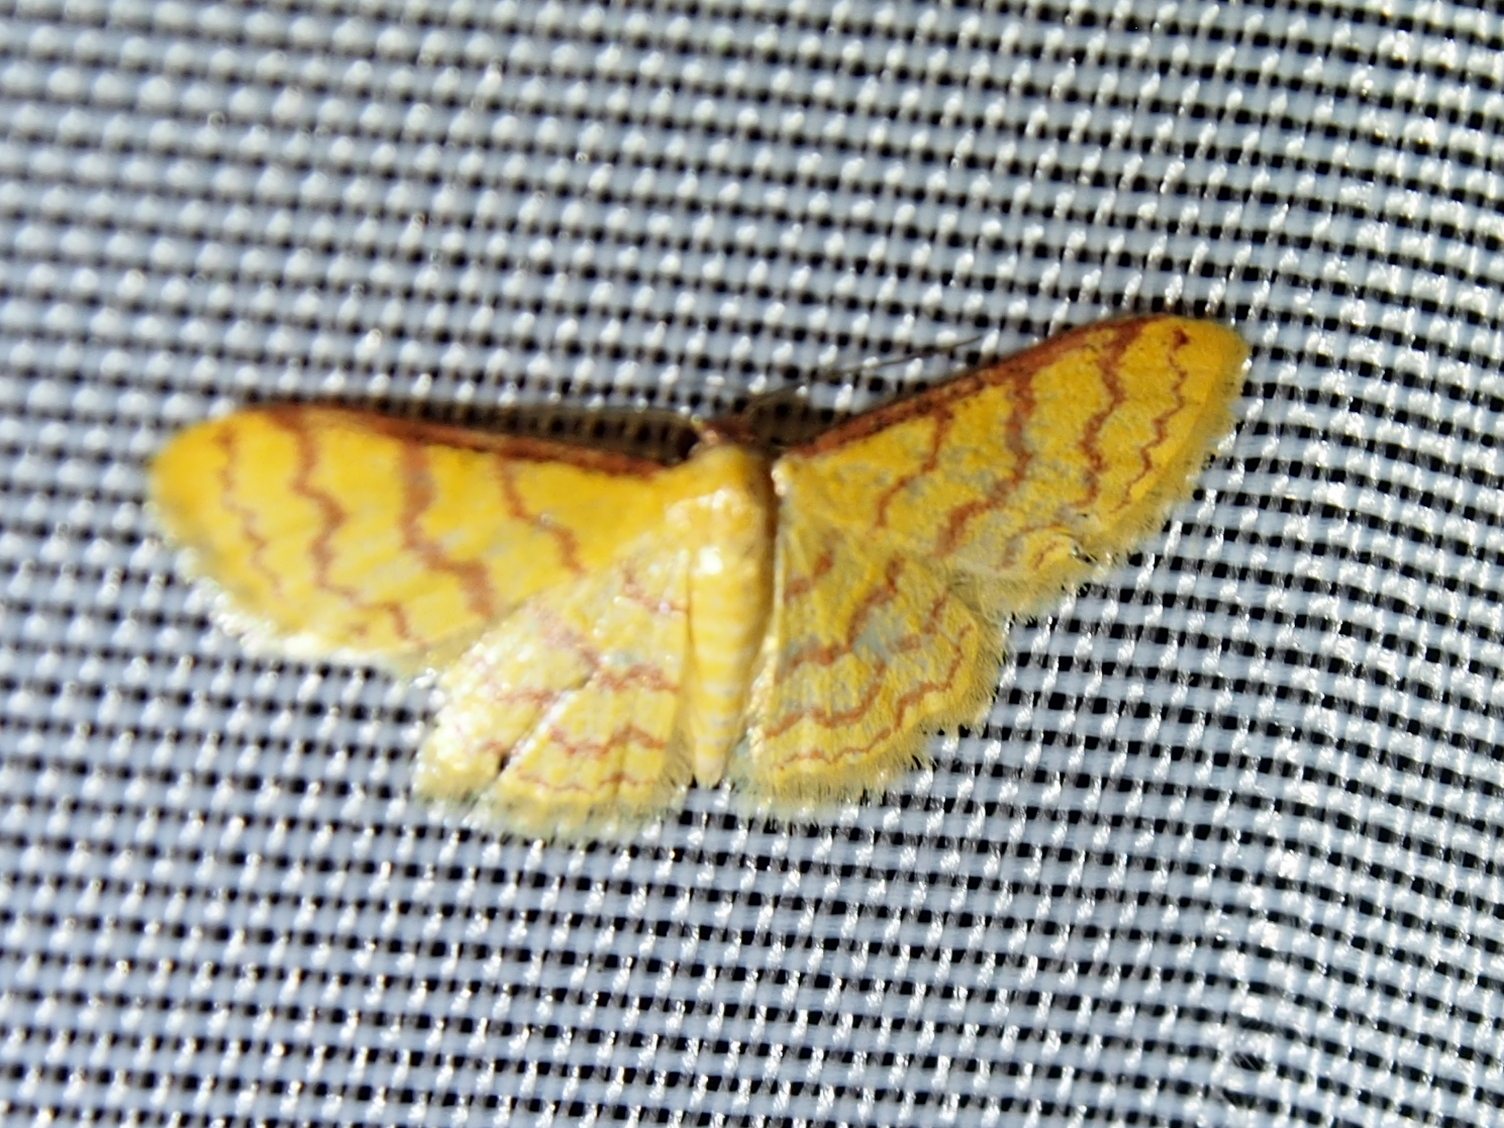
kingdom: Animalia
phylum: Arthropoda
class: Insecta
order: Lepidoptera
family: Geometridae
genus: Idaea
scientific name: Idaea similinea
